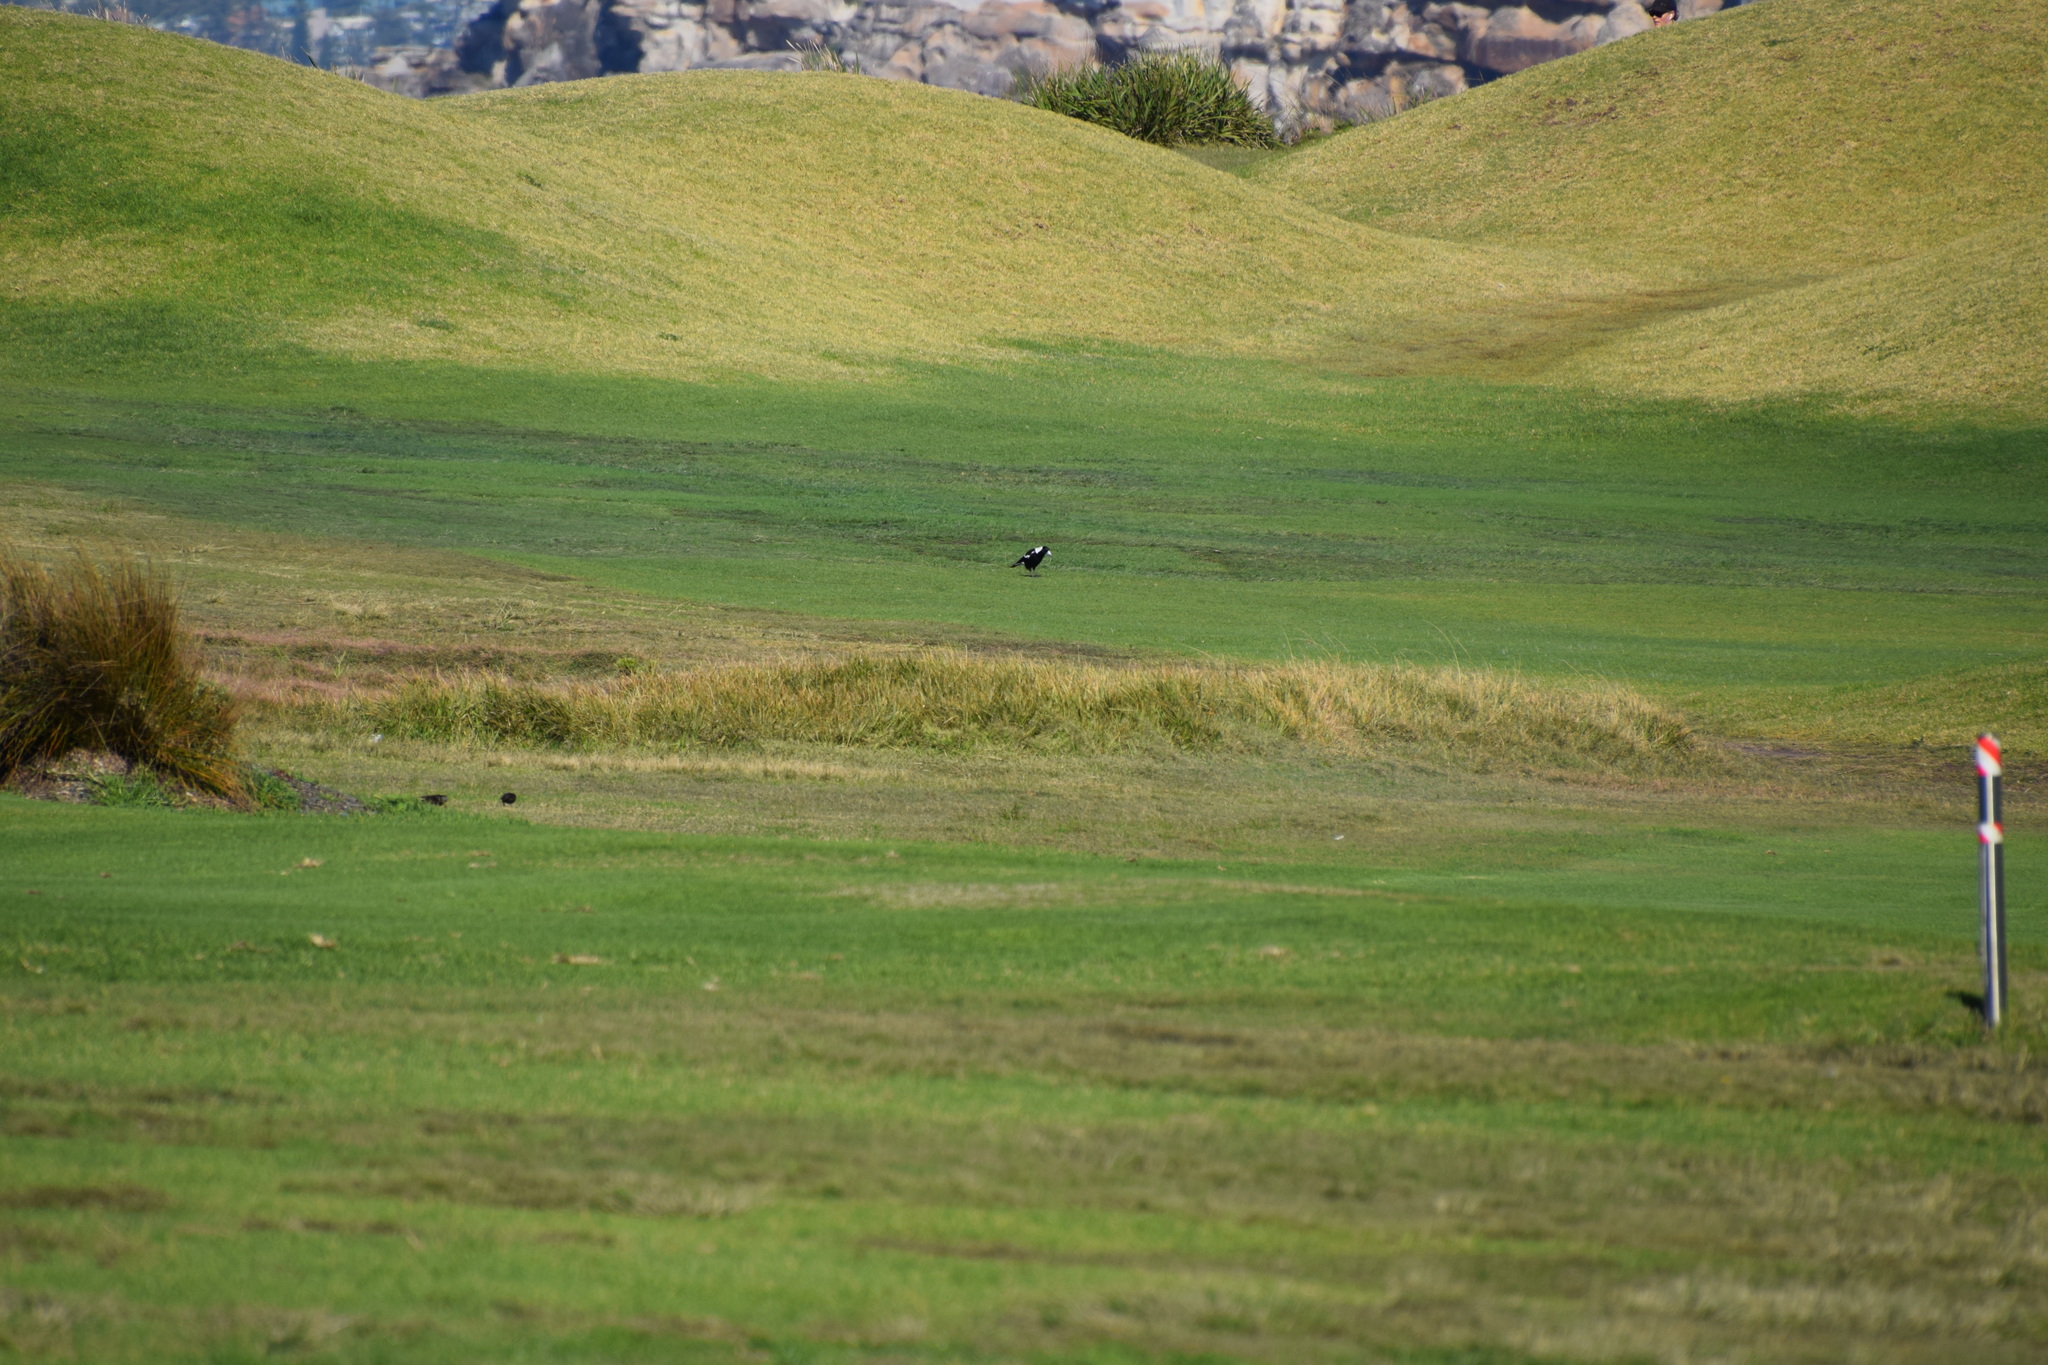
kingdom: Animalia
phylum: Chordata
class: Aves
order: Passeriformes
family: Cracticidae
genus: Gymnorhina
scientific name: Gymnorhina tibicen
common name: Australian magpie
